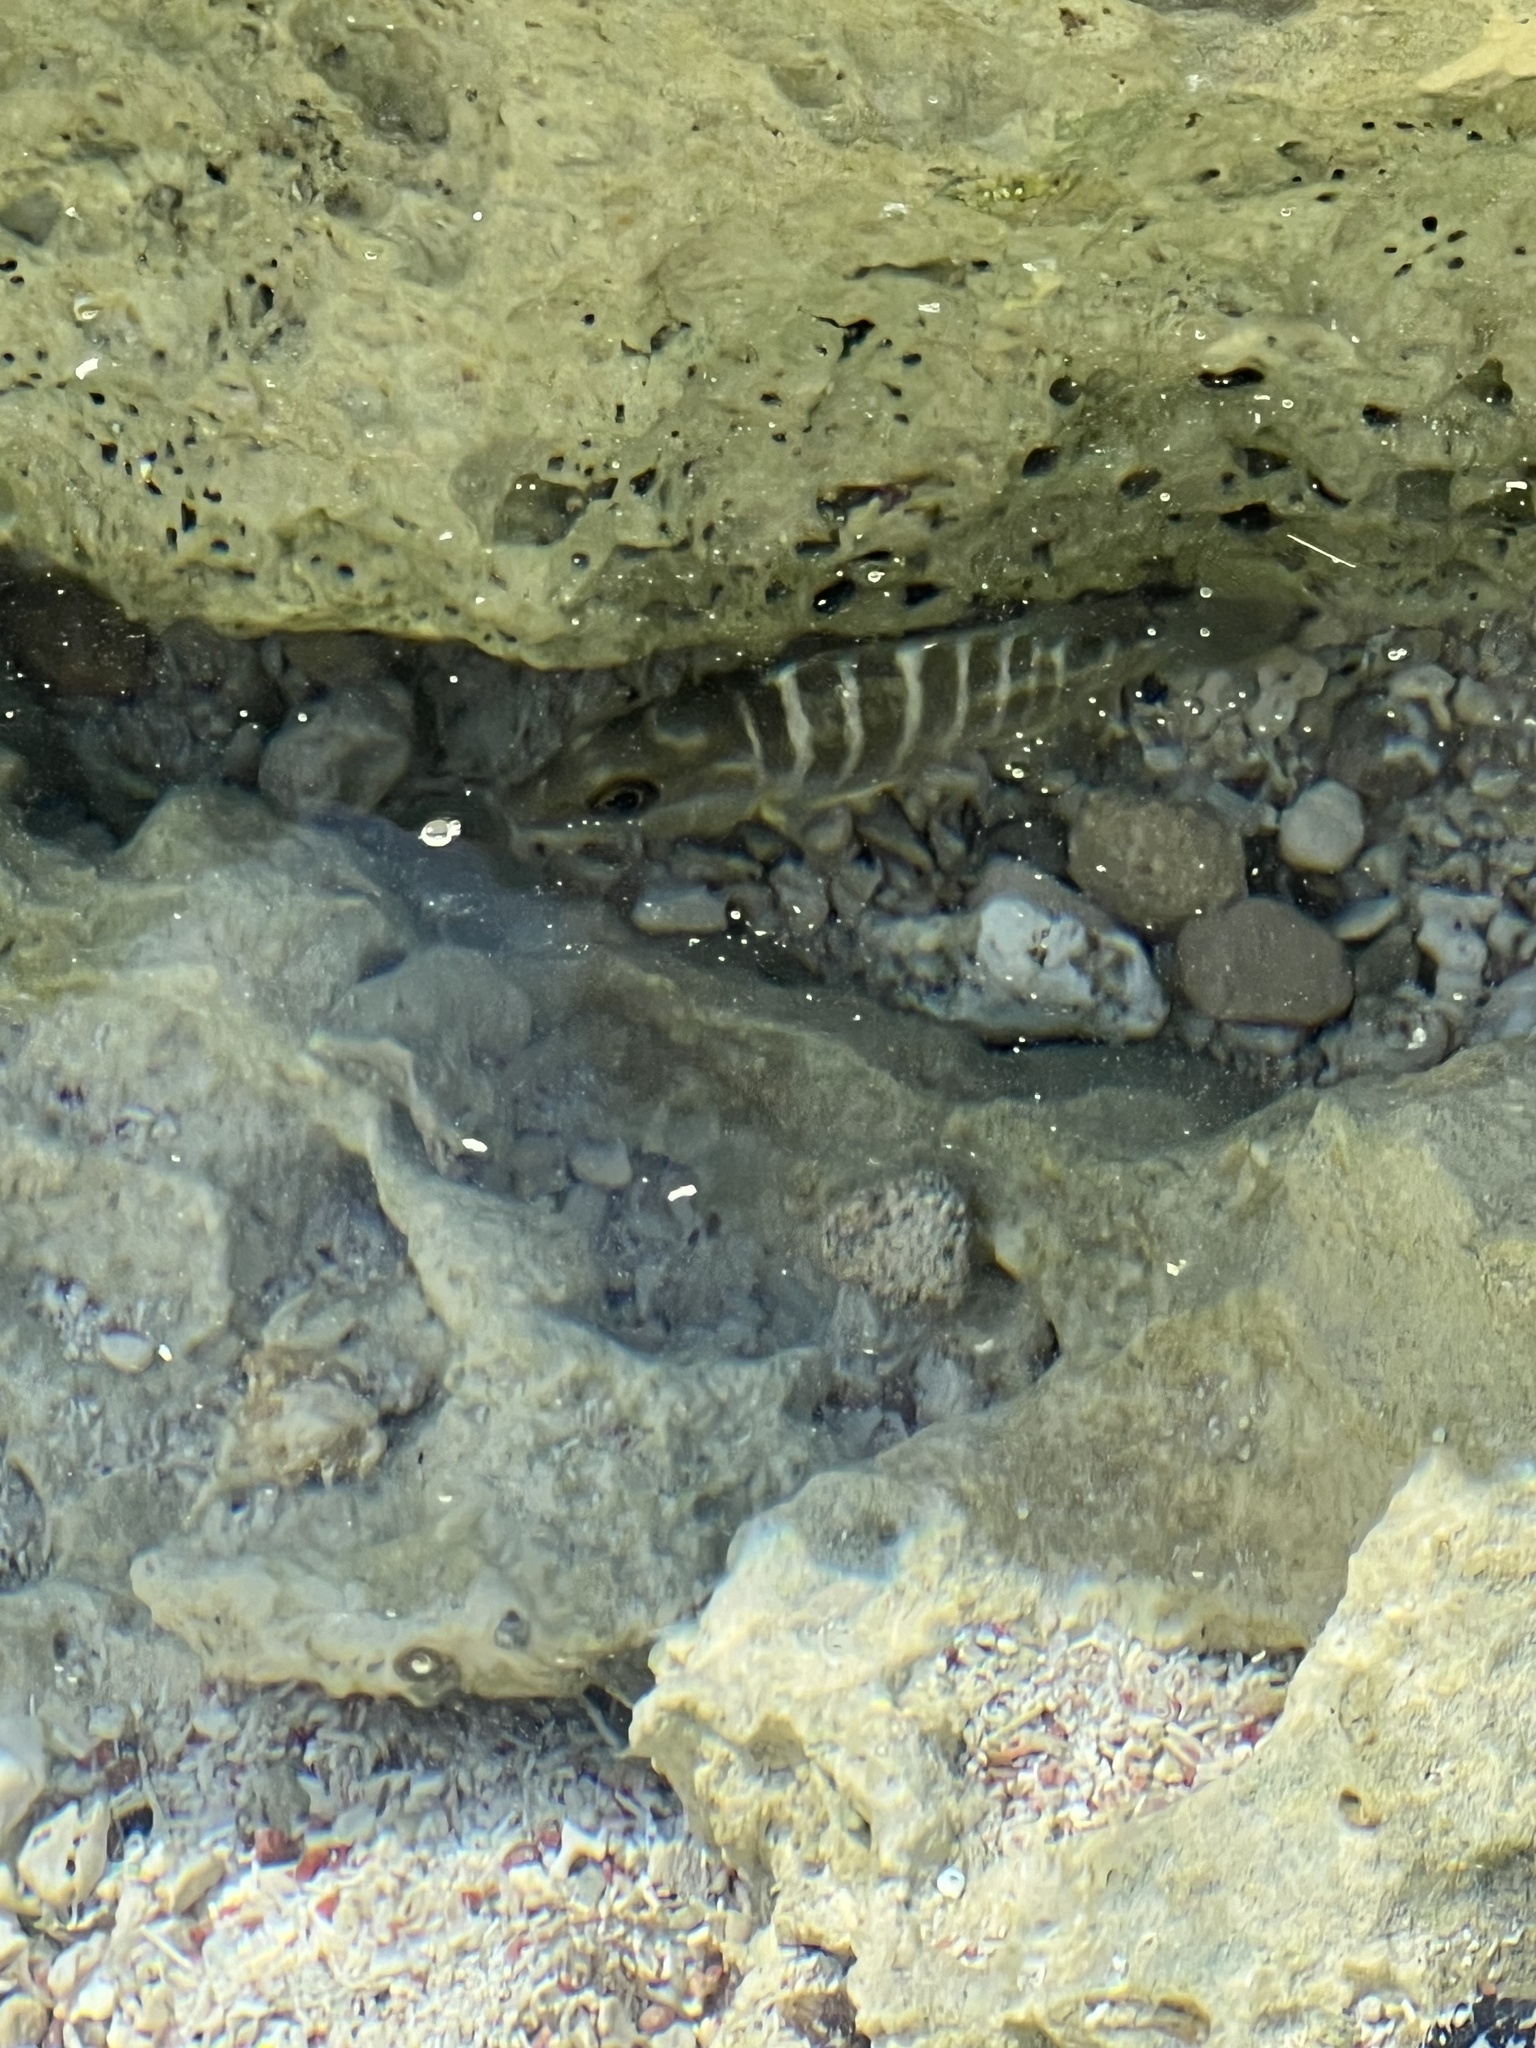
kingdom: Animalia
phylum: Chordata
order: Perciformes
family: Lutjanidae
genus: Lutjanus
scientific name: Lutjanus apodus
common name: Schoolmaster
